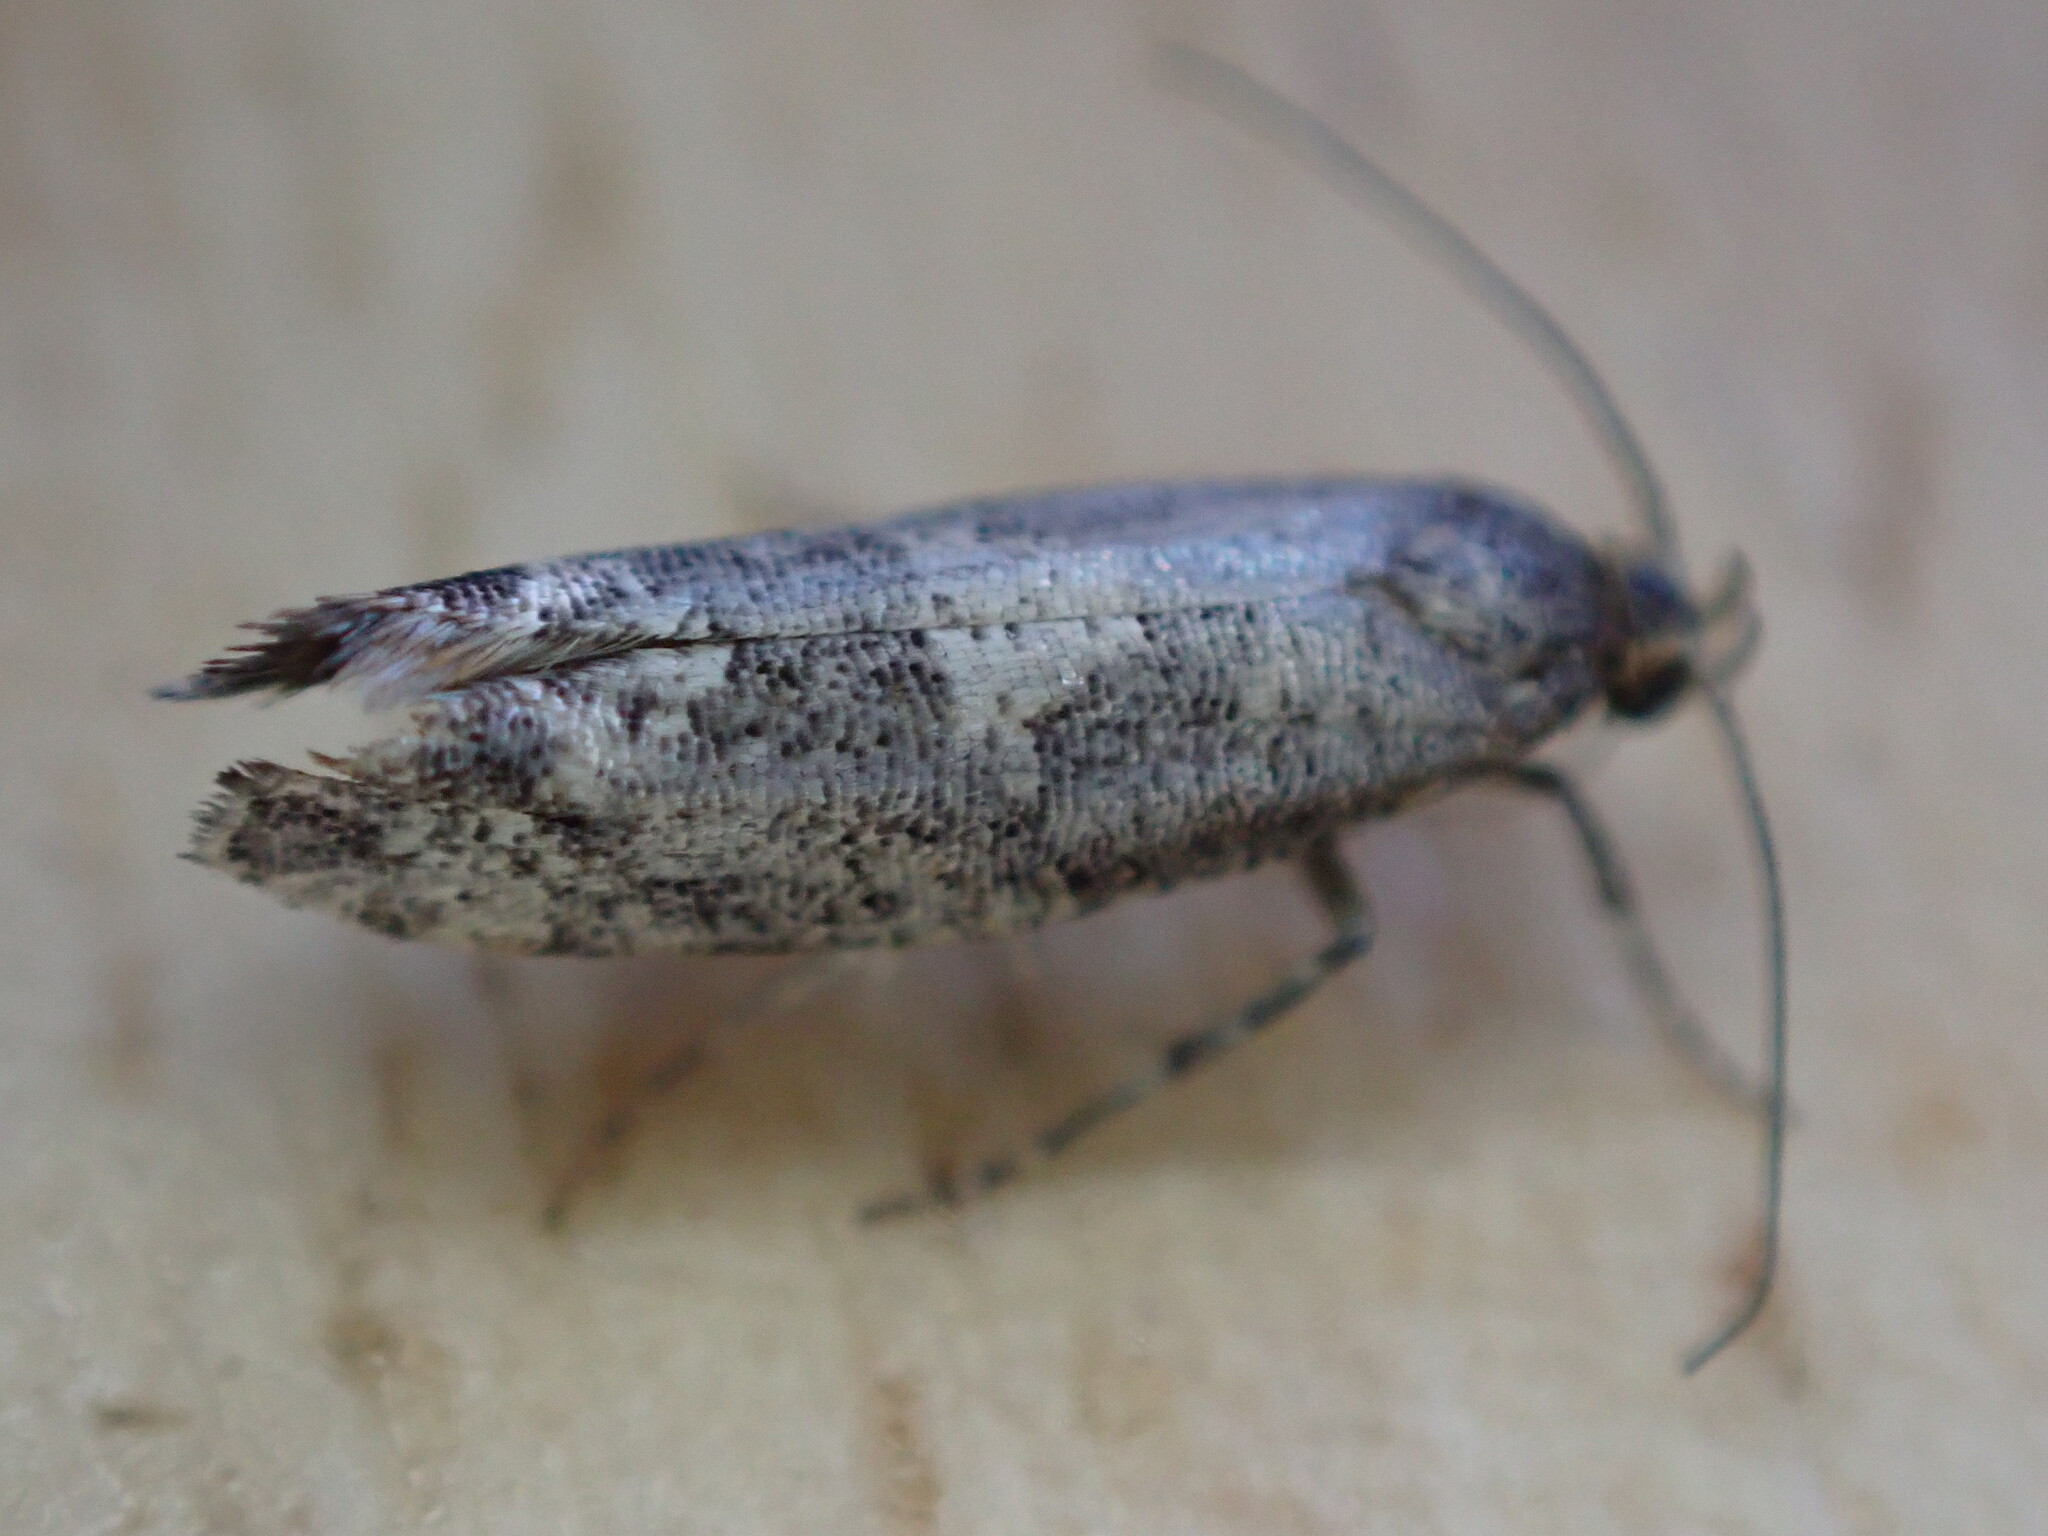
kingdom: Animalia
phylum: Arthropoda
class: Insecta
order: Lepidoptera
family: Glyphipterigidae
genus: Acrolepia
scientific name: Acrolepia assectella
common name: Onion leaf miner
